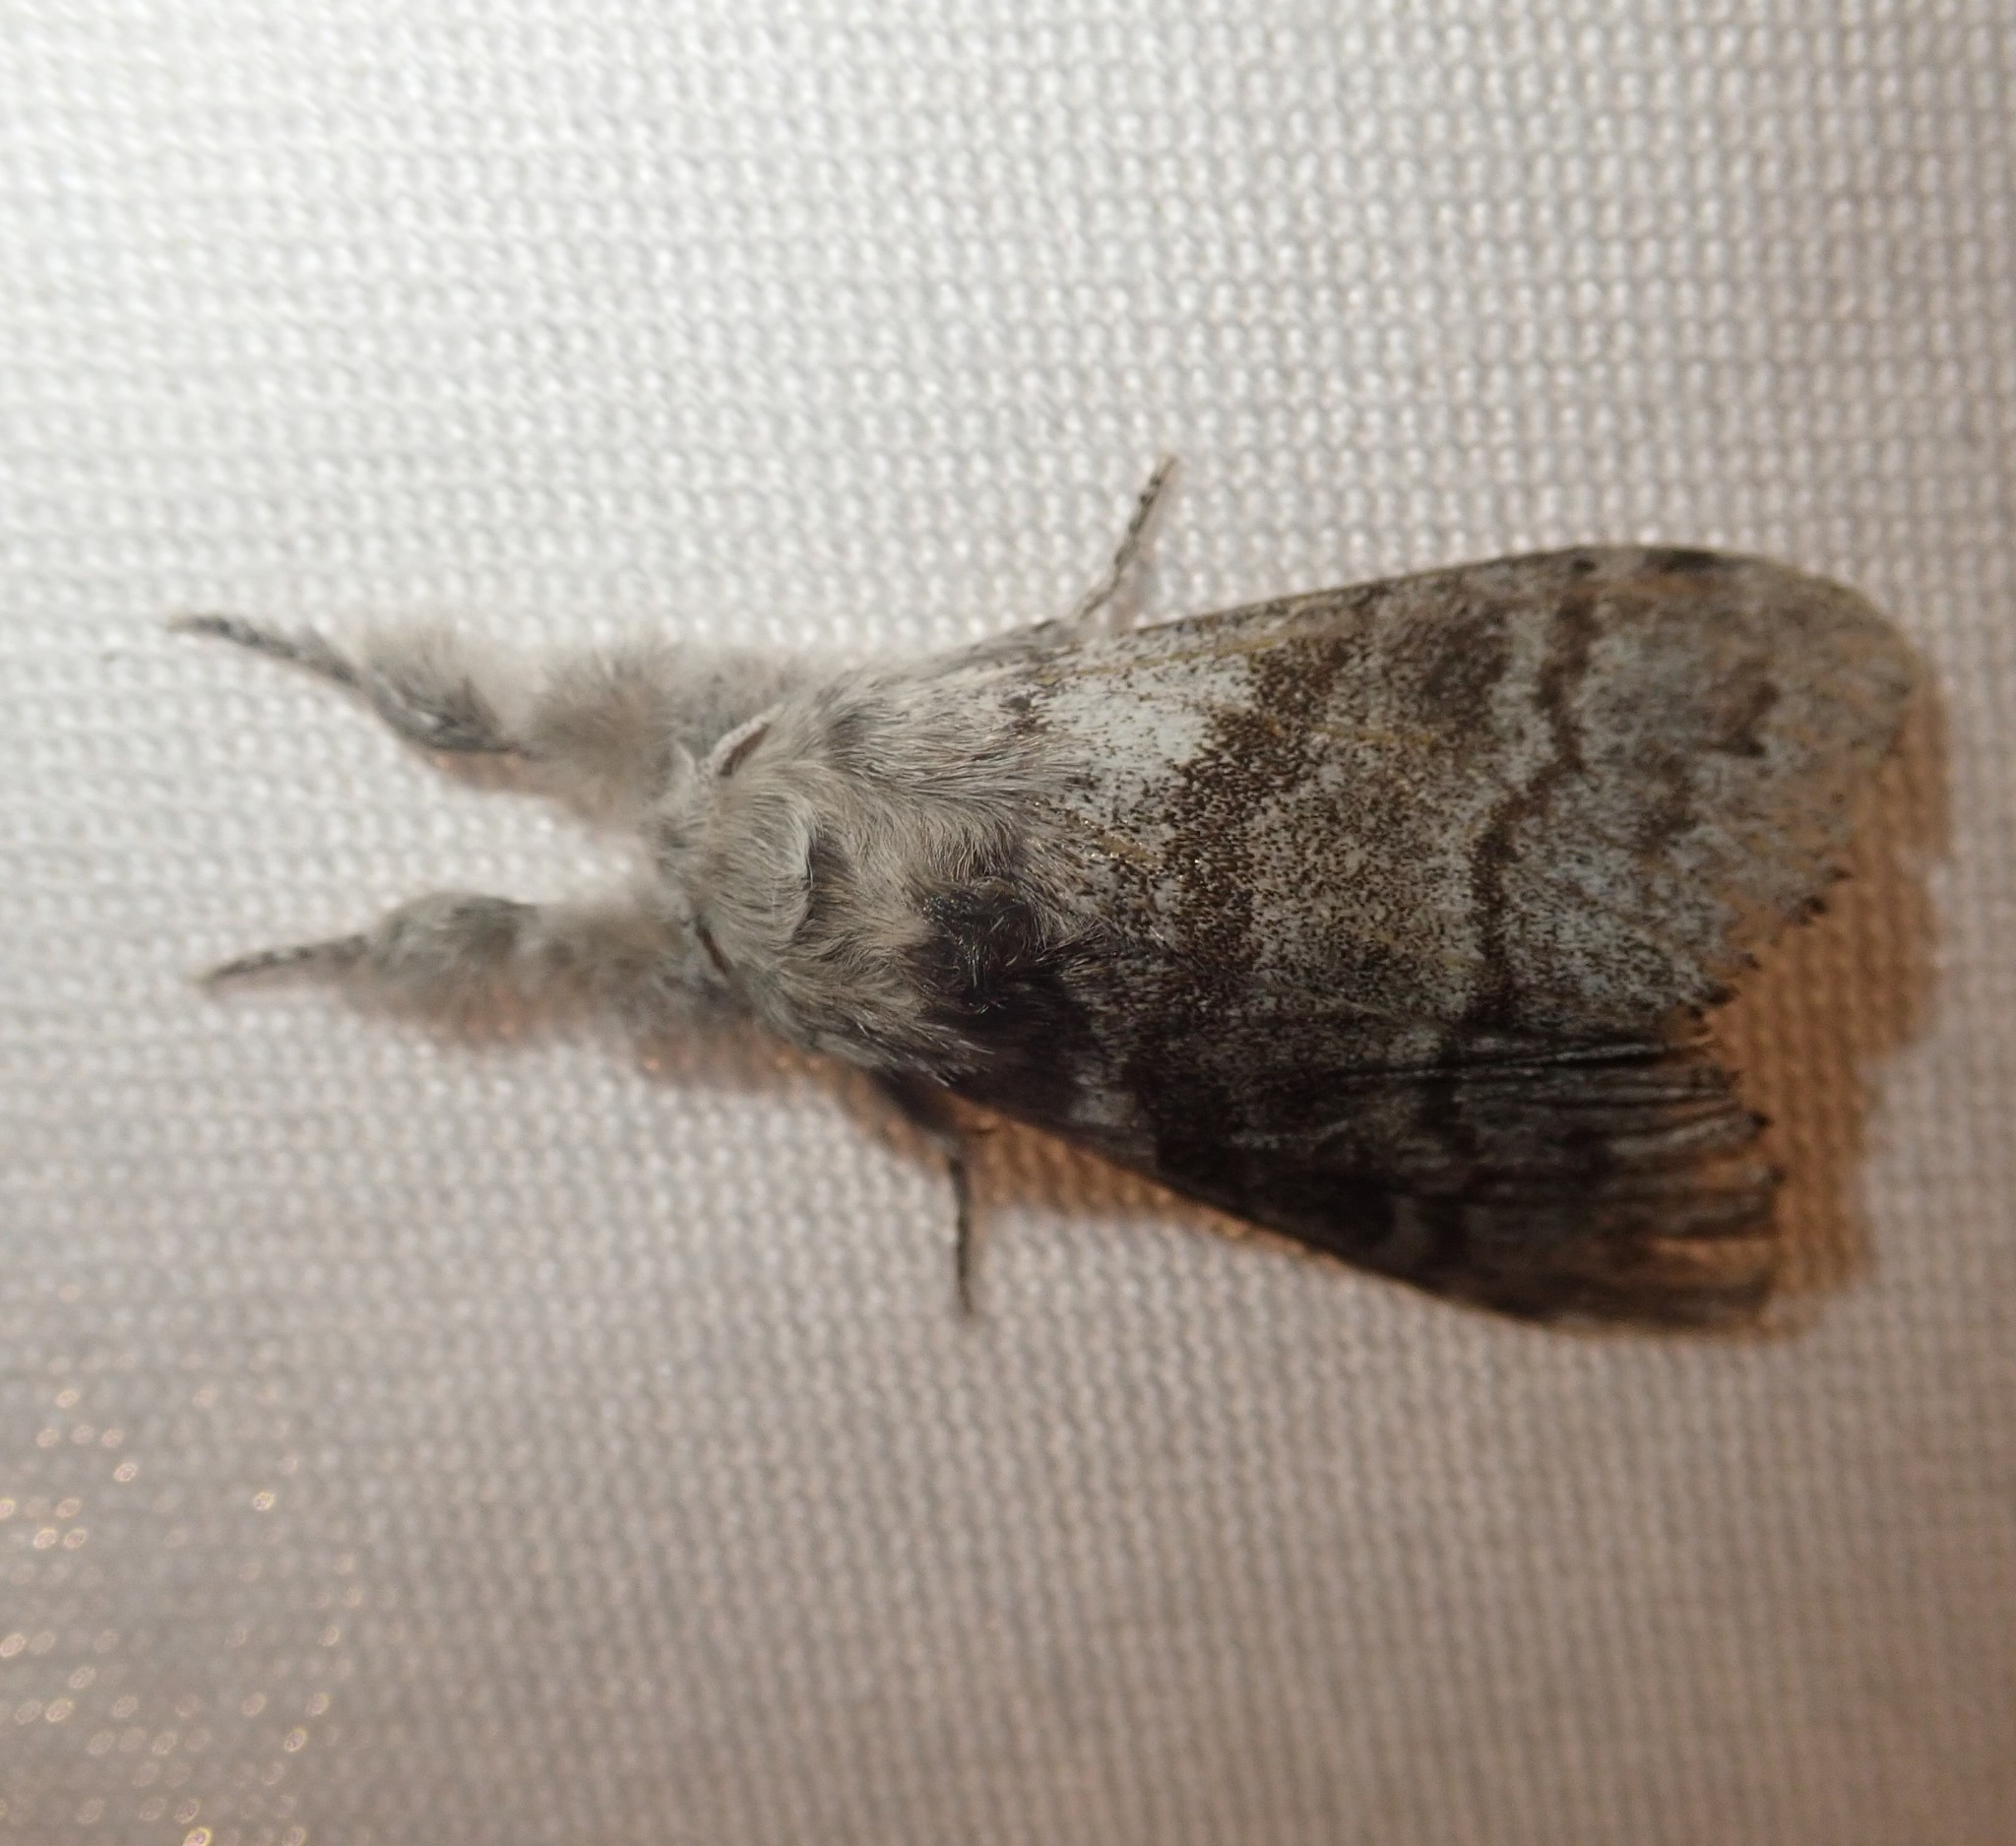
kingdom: Animalia
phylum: Arthropoda
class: Insecta
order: Lepidoptera
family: Erebidae
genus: Calliteara
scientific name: Calliteara pudibunda
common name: Pale tussock
